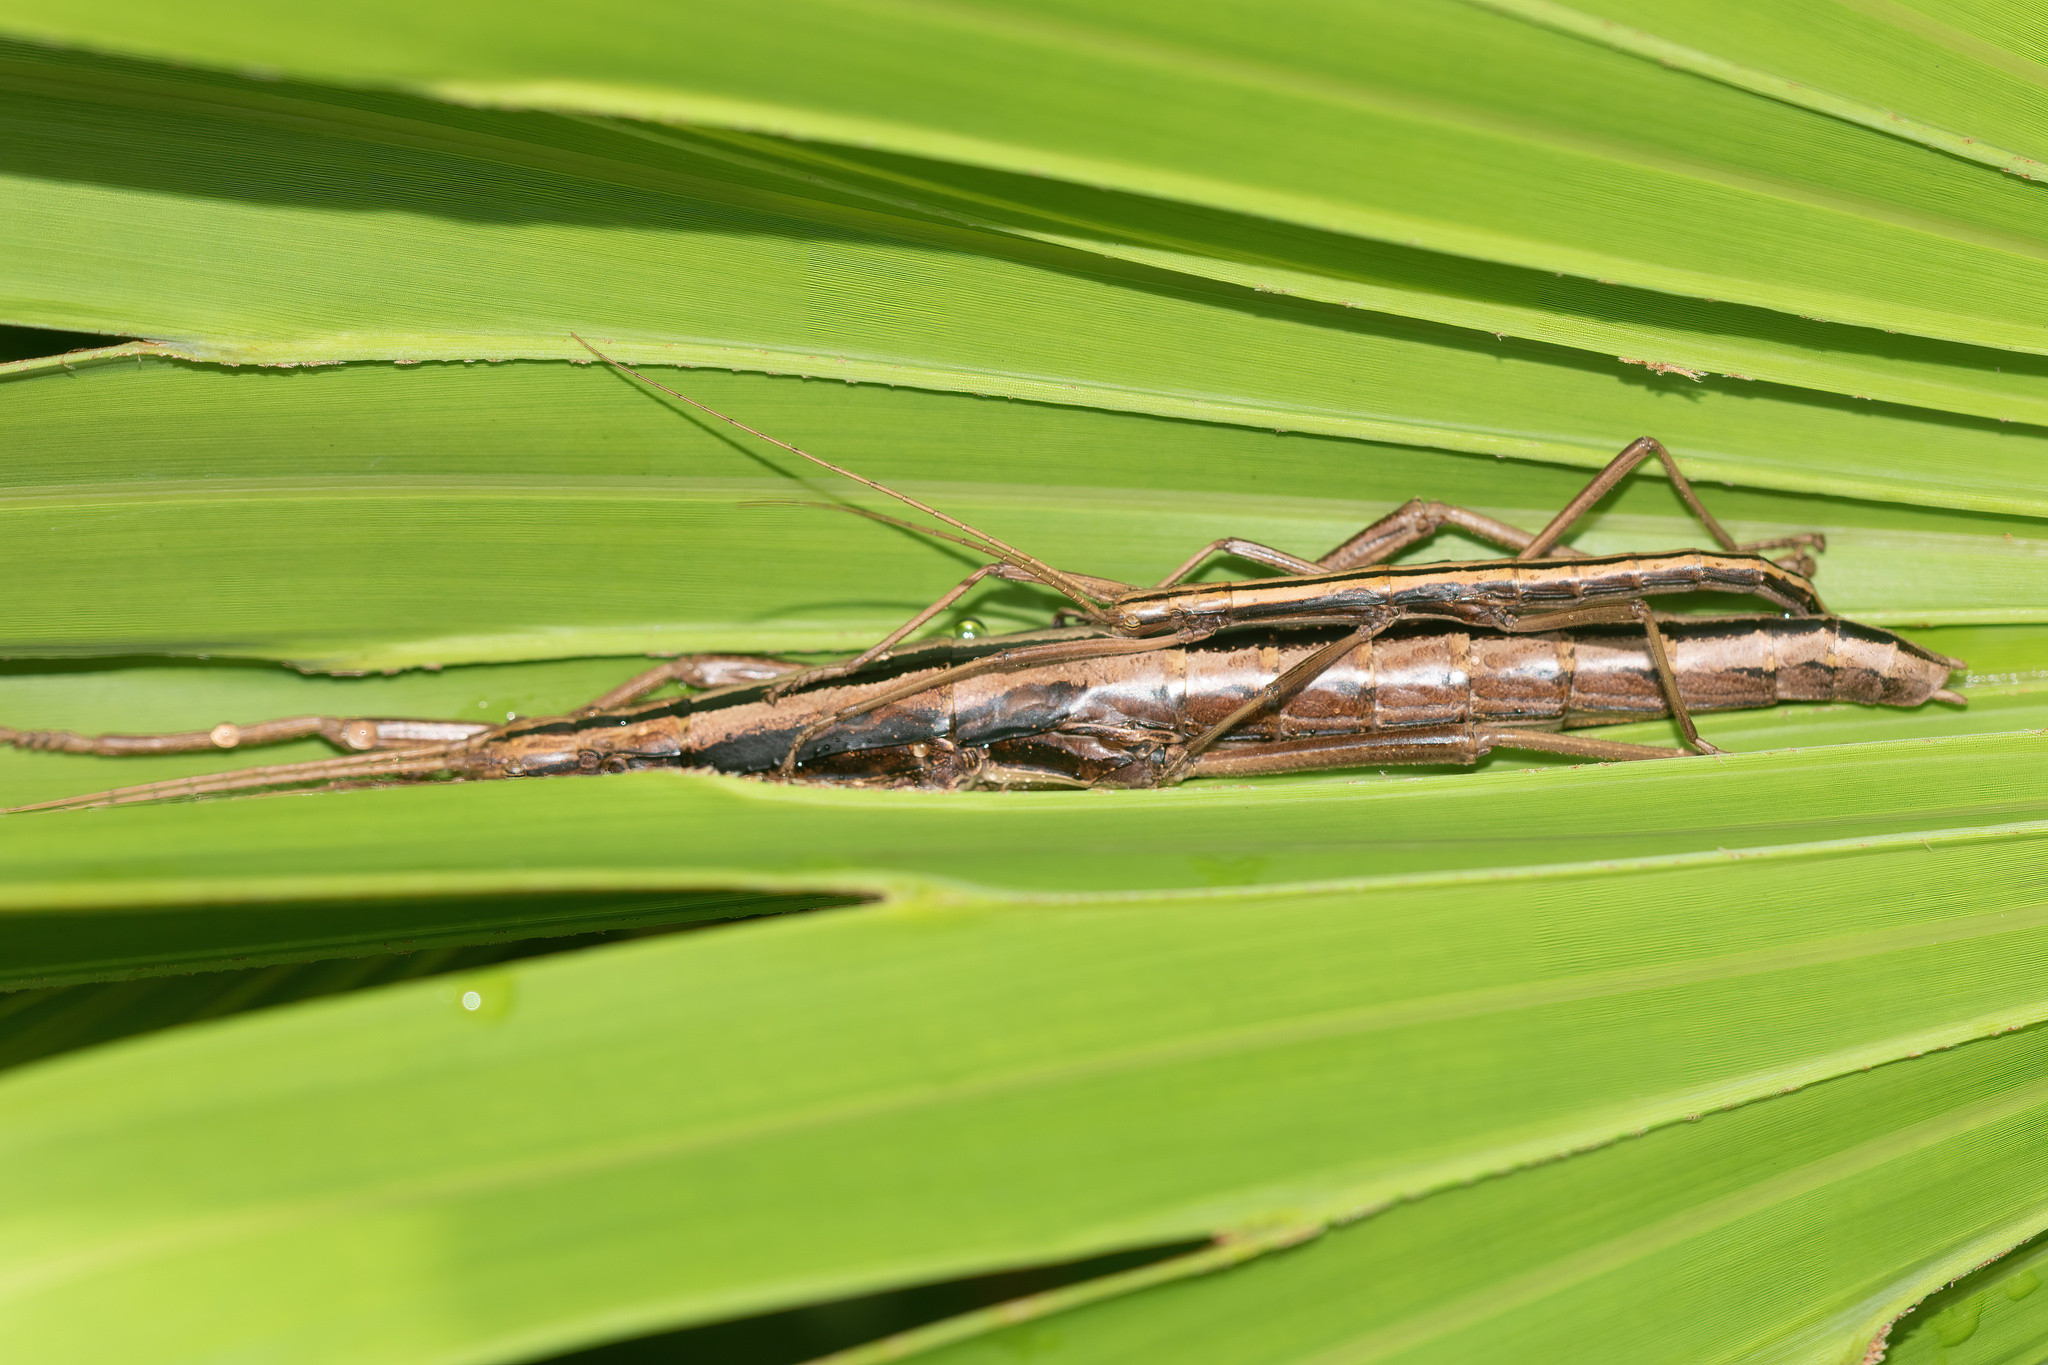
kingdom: Animalia
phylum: Arthropoda
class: Insecta
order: Phasmida
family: Pseudophasmatidae
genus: Anisomorpha
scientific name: Anisomorpha buprestoides
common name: Florida stick insect
